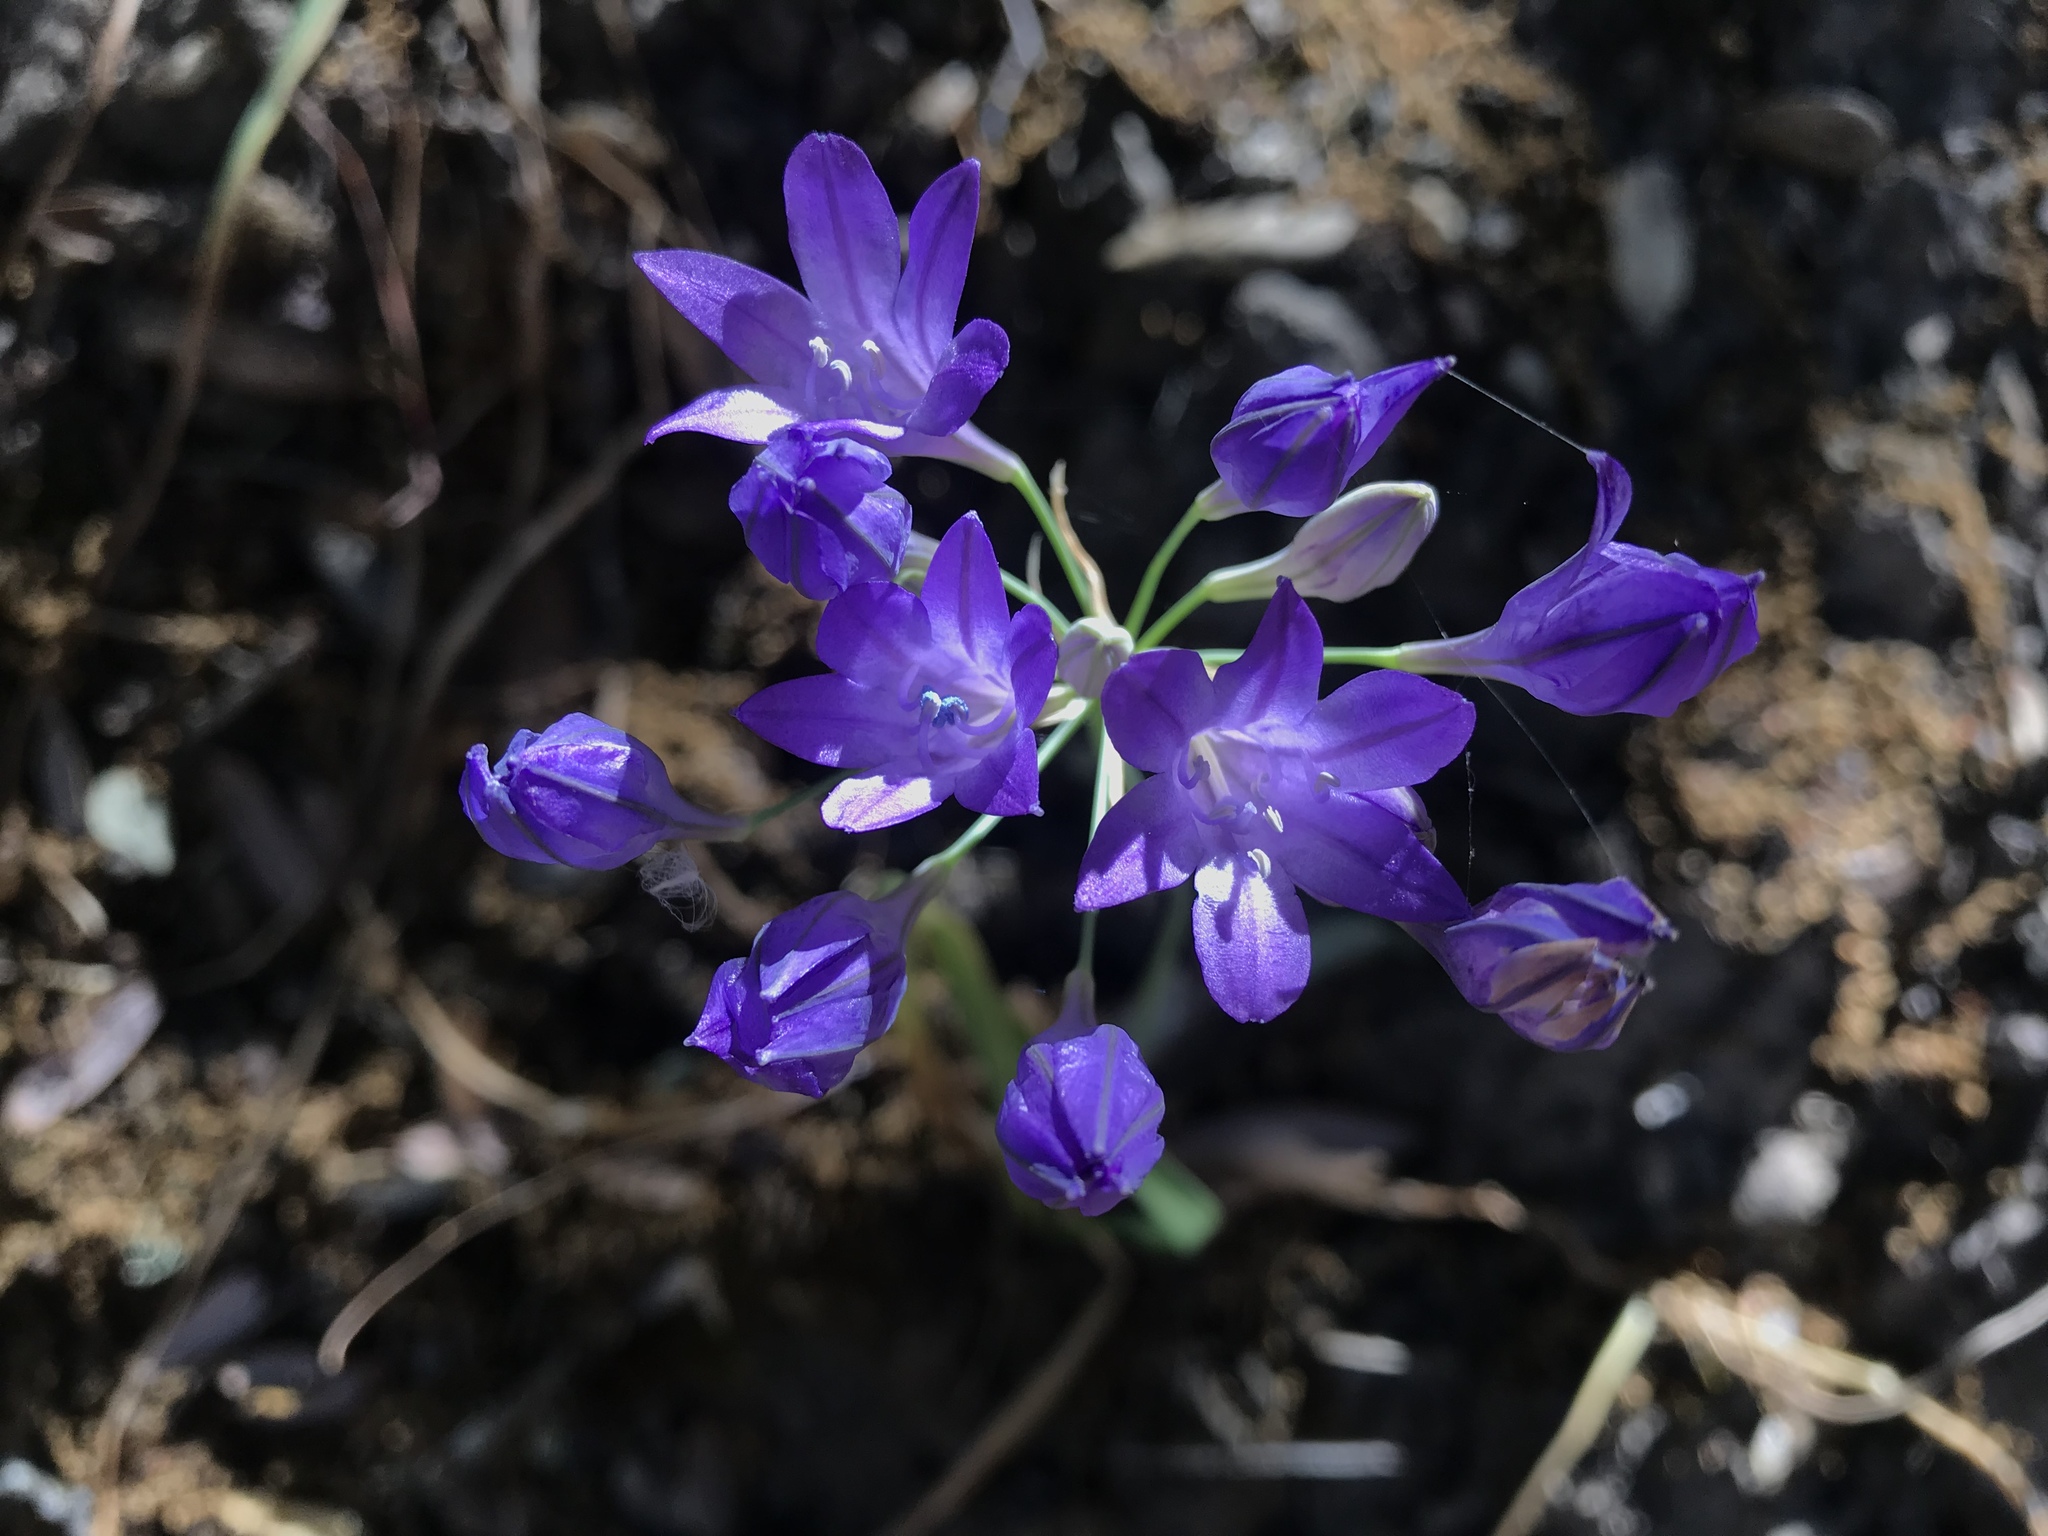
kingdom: Plantae
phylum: Tracheophyta
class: Liliopsida
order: Asparagales
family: Asparagaceae
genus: Triteleia
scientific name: Triteleia laxa
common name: Triplet-lily
